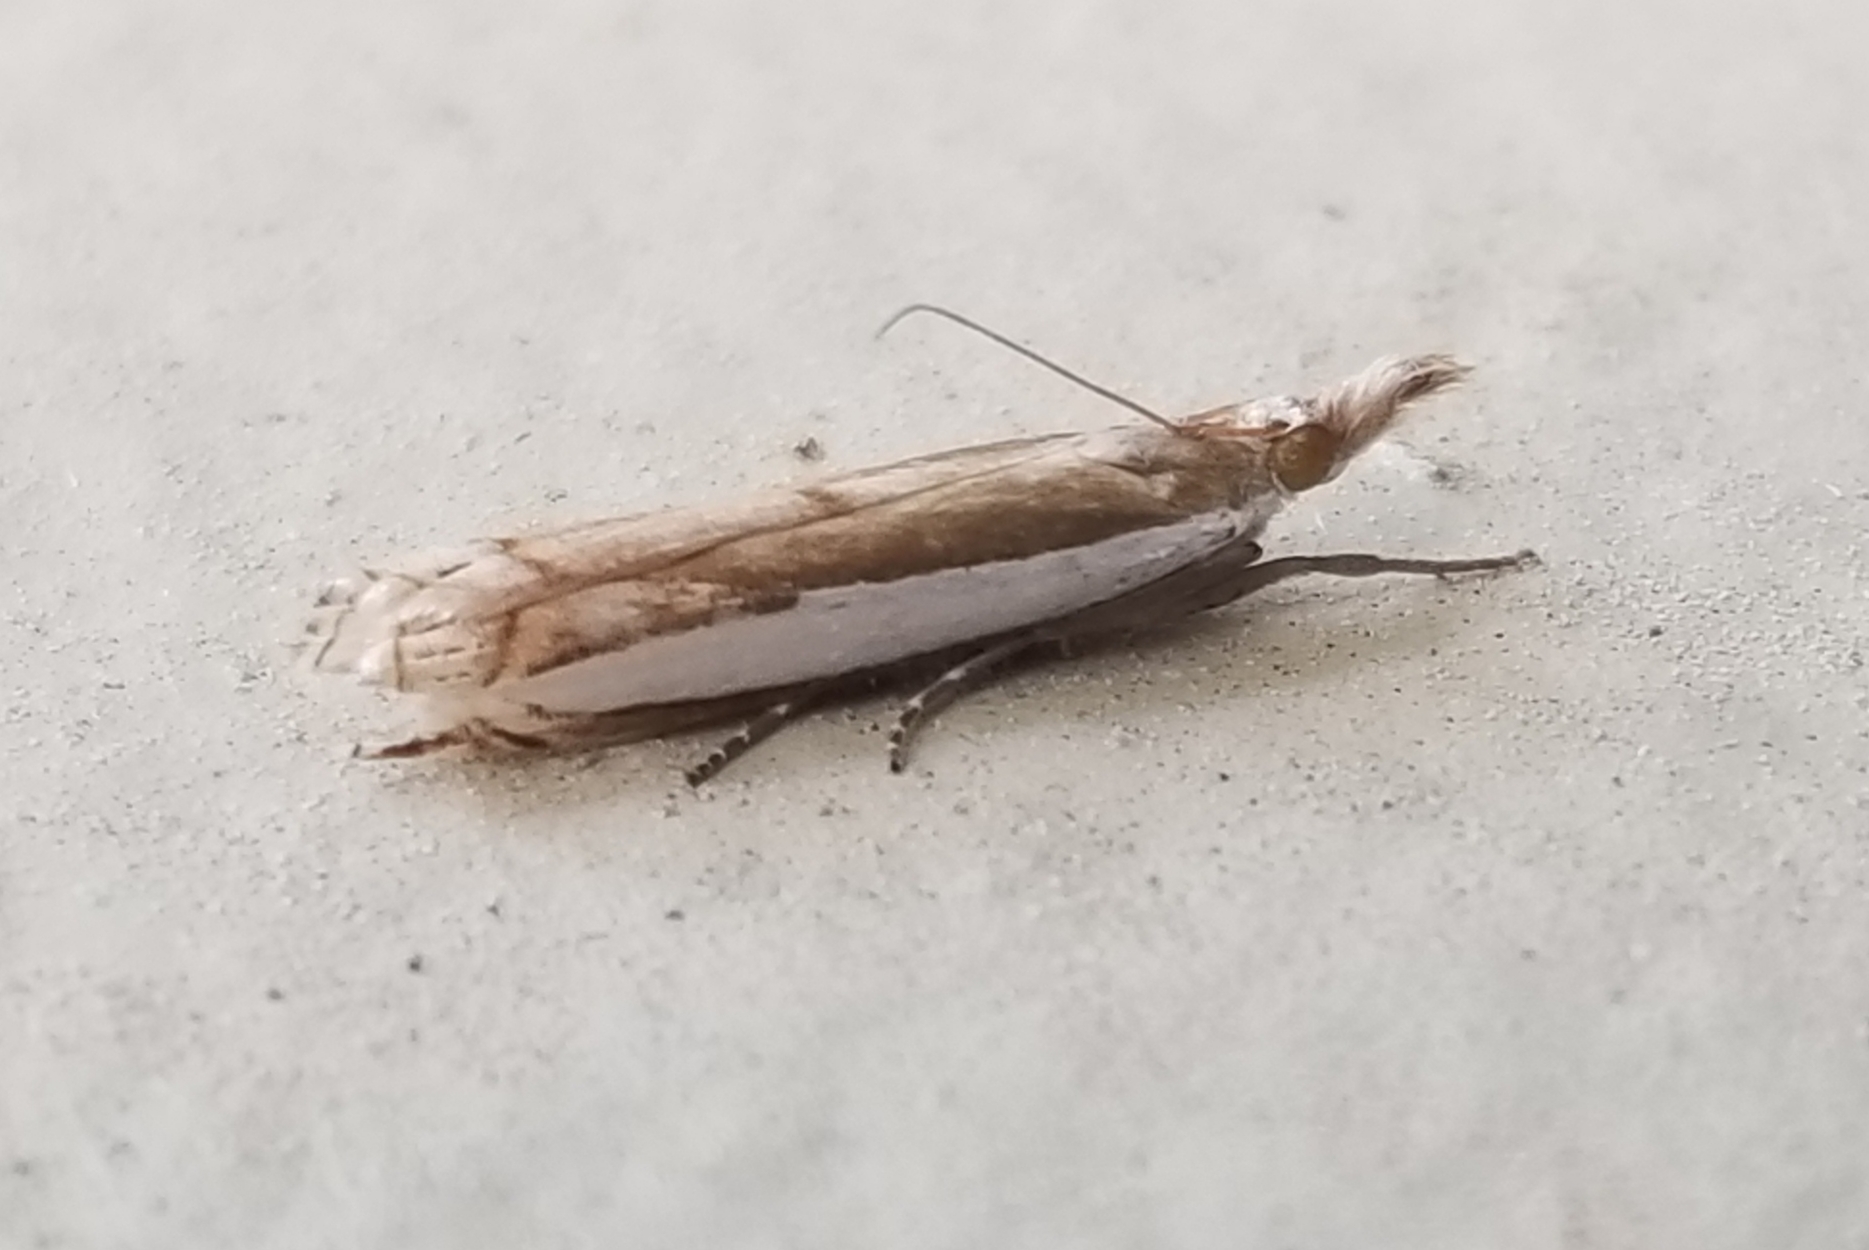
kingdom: Animalia
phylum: Arthropoda
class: Insecta
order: Lepidoptera
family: Crambidae
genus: Crambus
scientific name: Crambus quinquareatus
